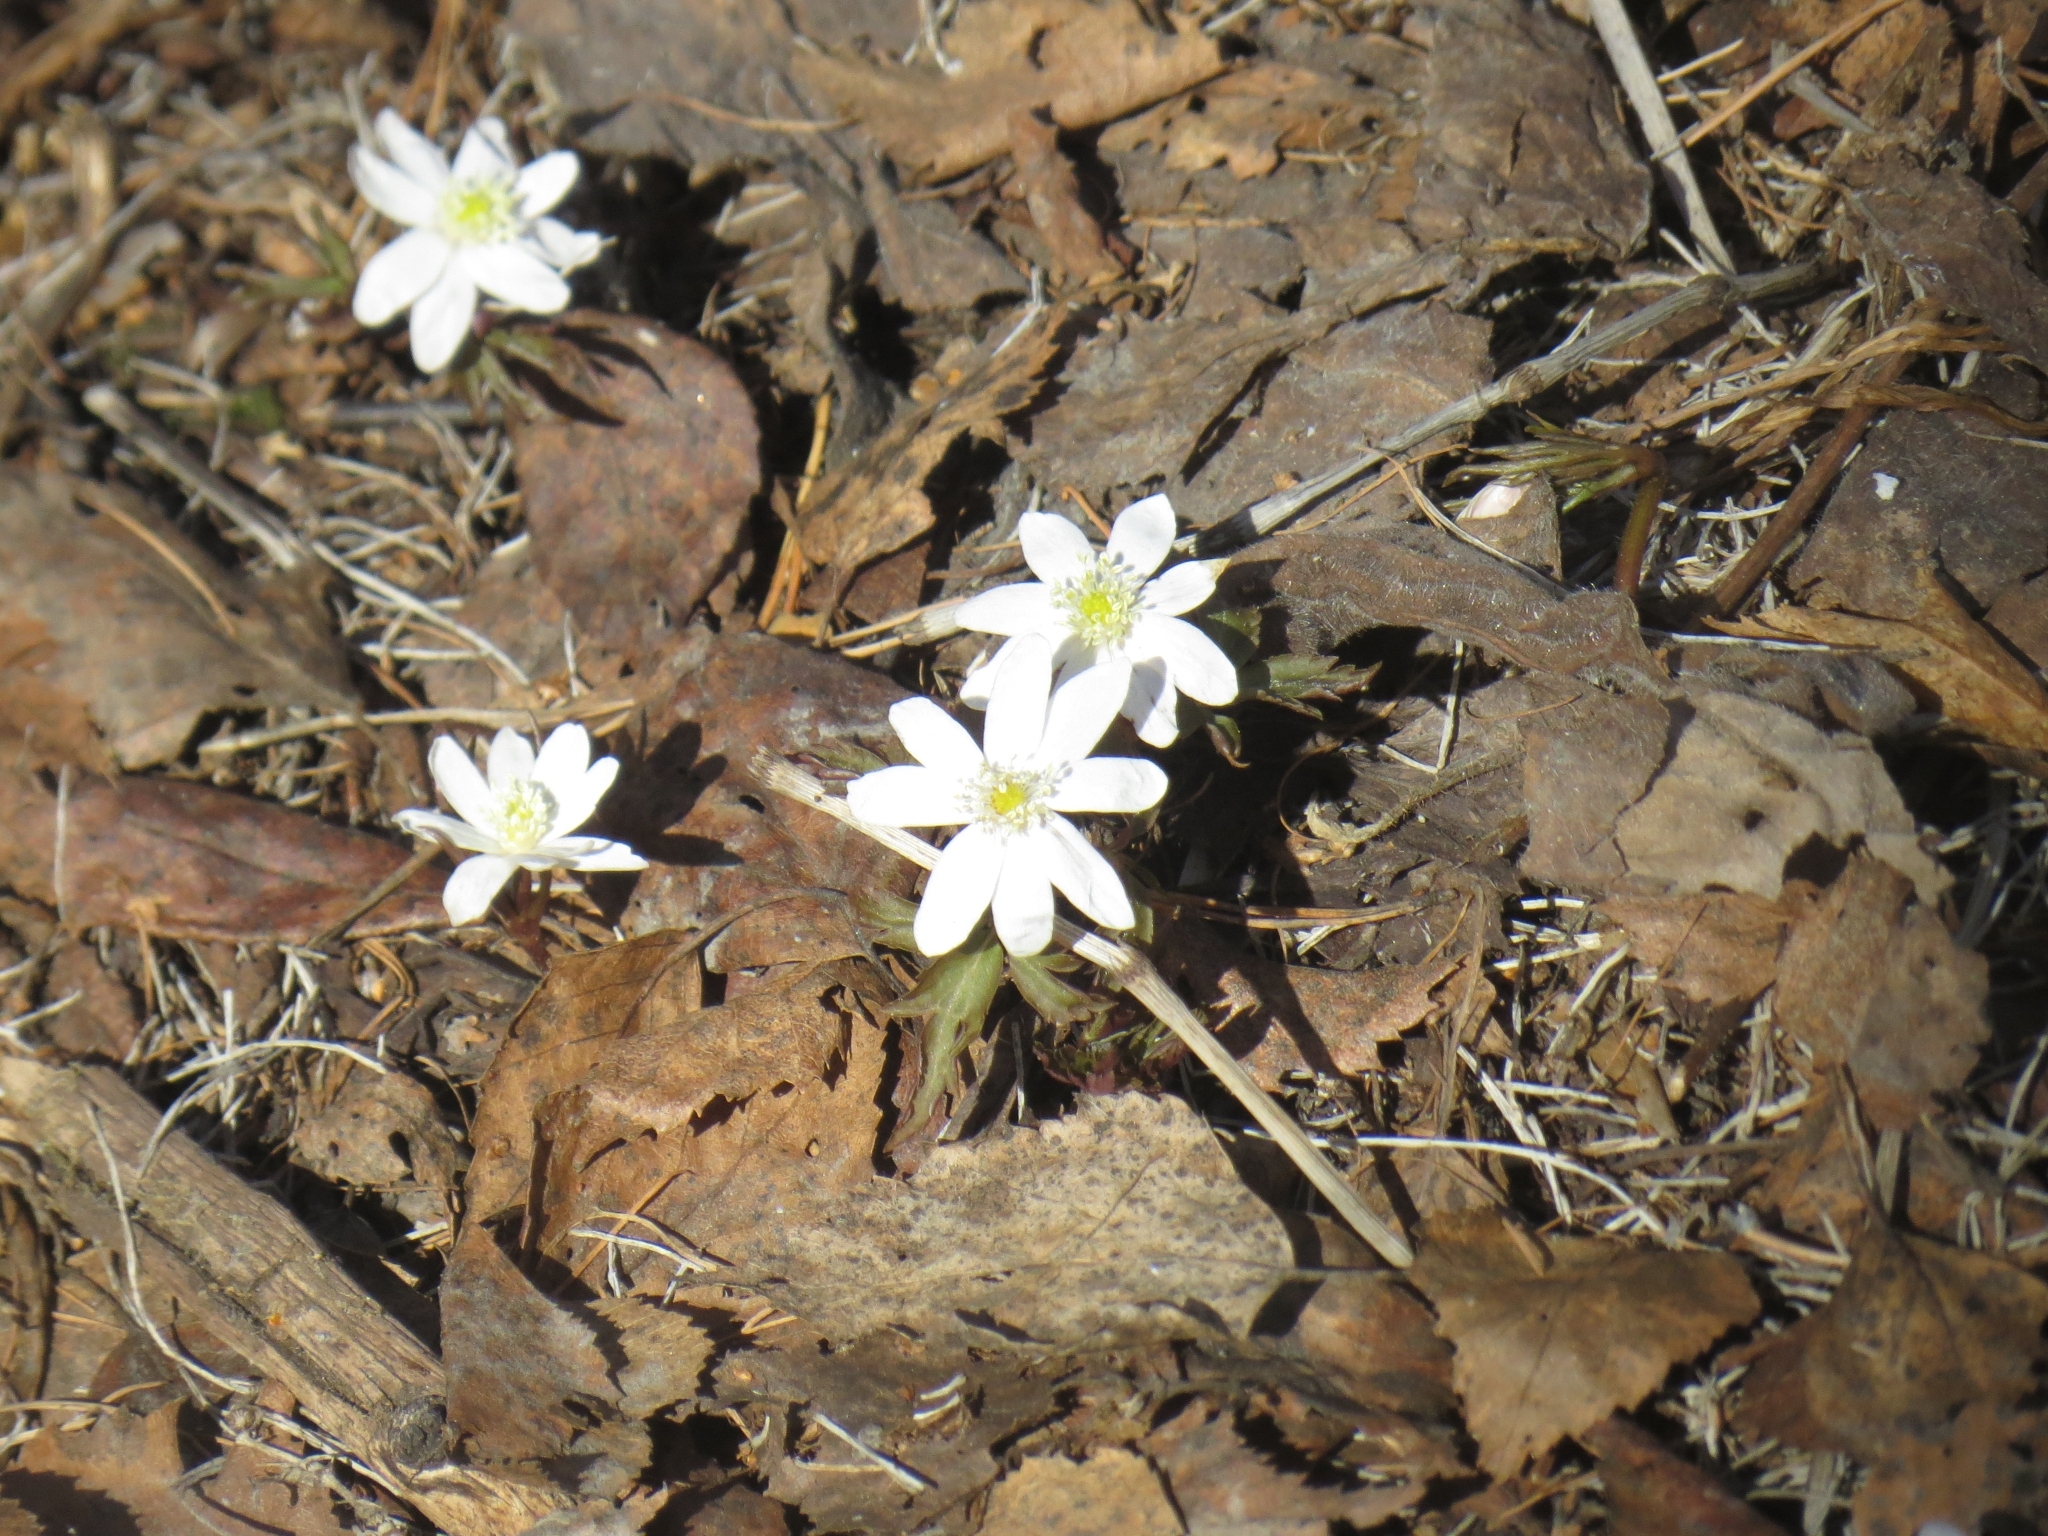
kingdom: Plantae
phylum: Tracheophyta
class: Magnoliopsida
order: Ranunculales
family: Ranunculaceae
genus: Anemone
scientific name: Anemone altaica
